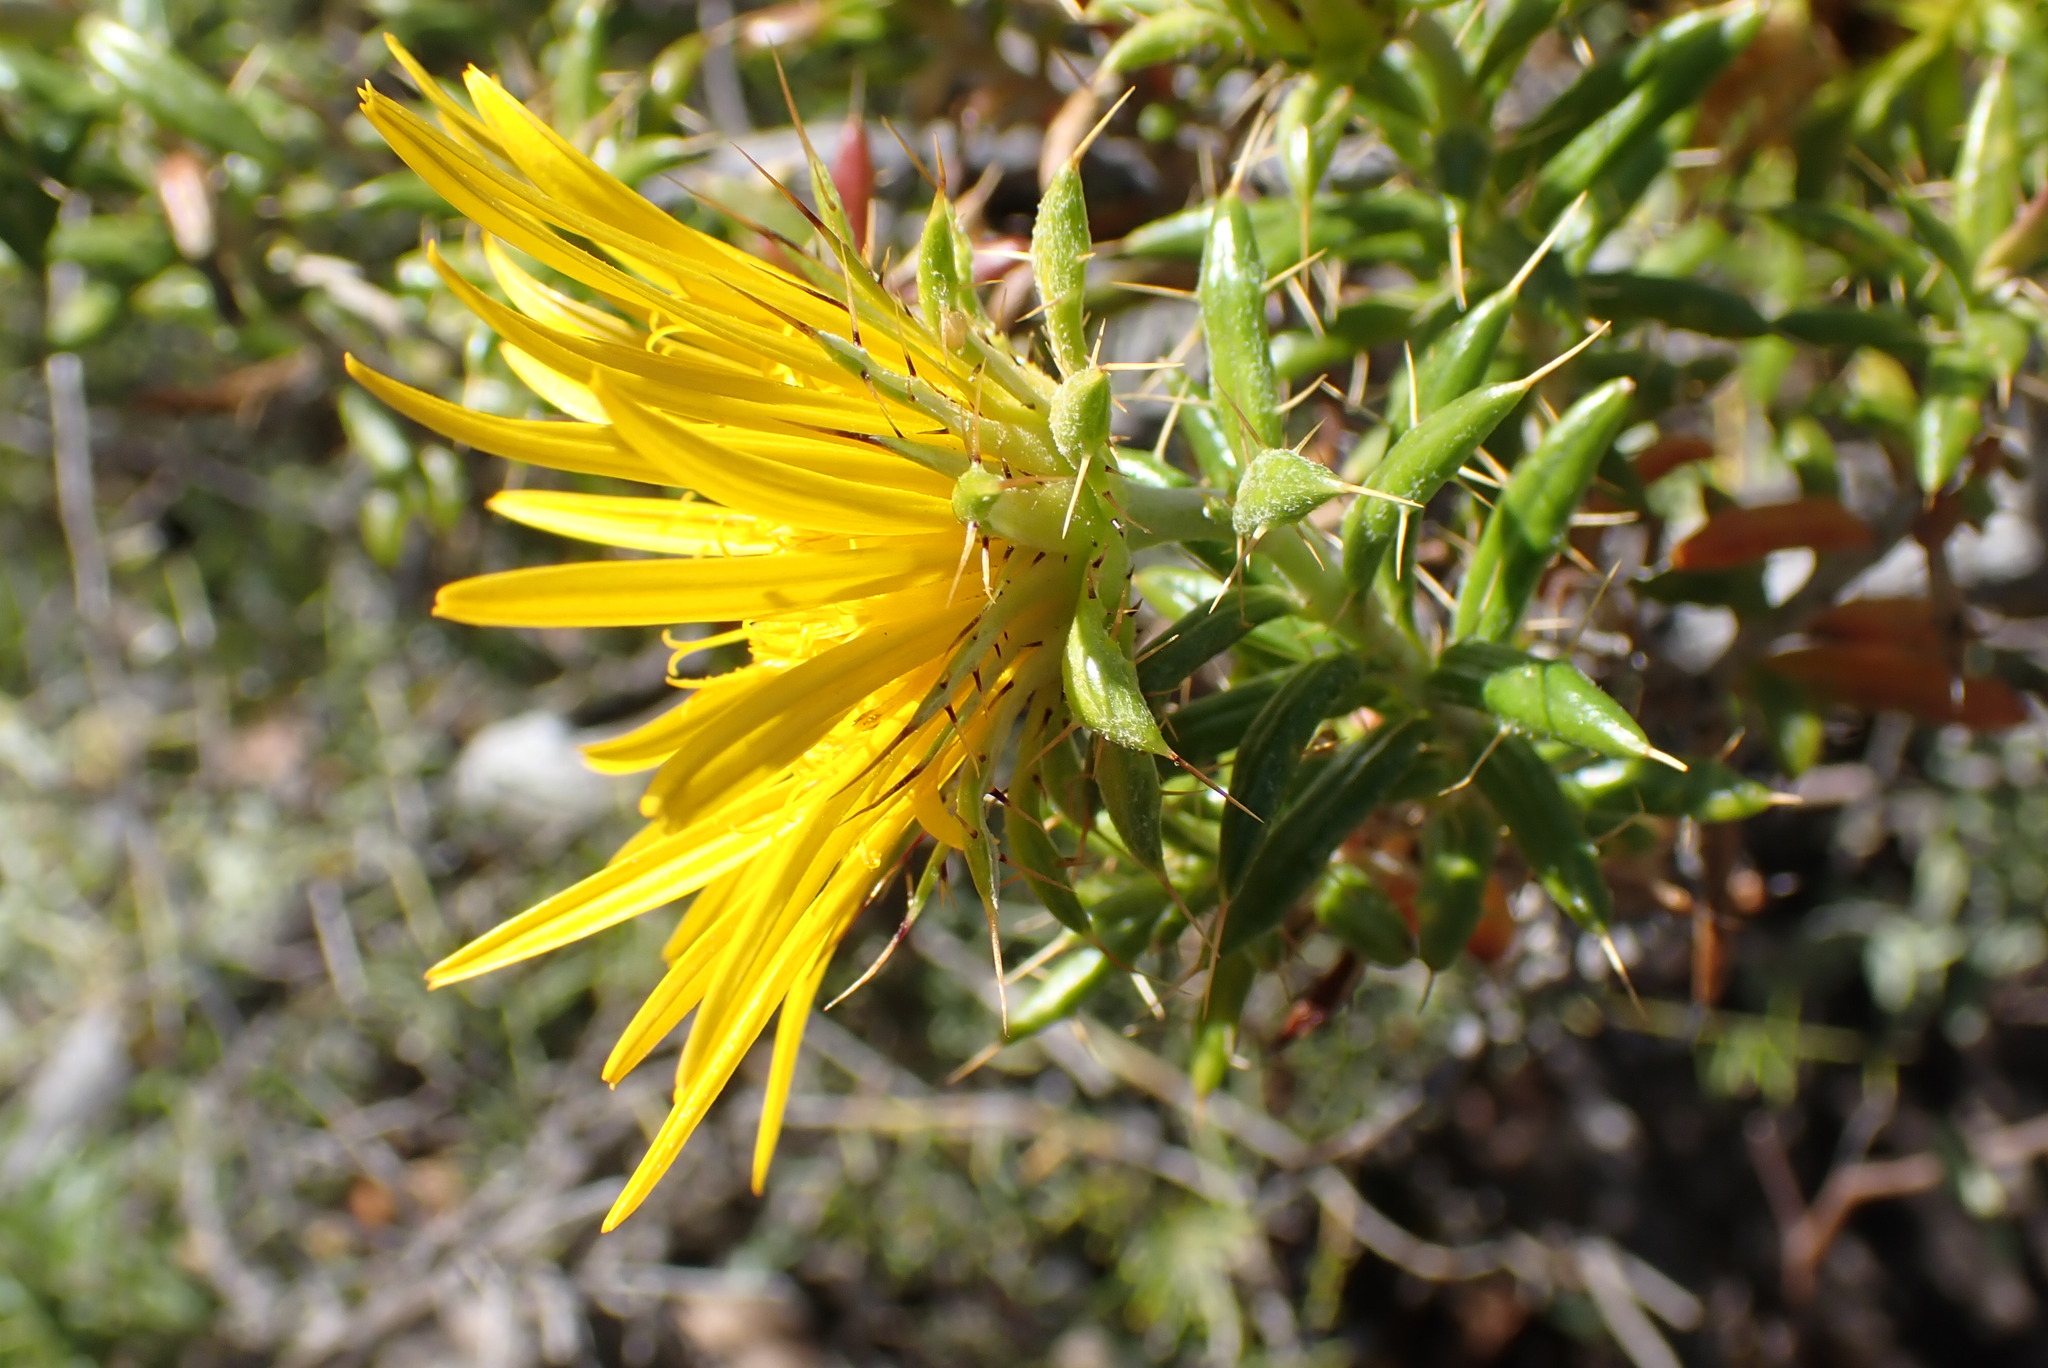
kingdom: Plantae
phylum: Tracheophyta
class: Magnoliopsida
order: Asterales
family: Asteraceae
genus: Cullumia
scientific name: Cullumia bisulca
